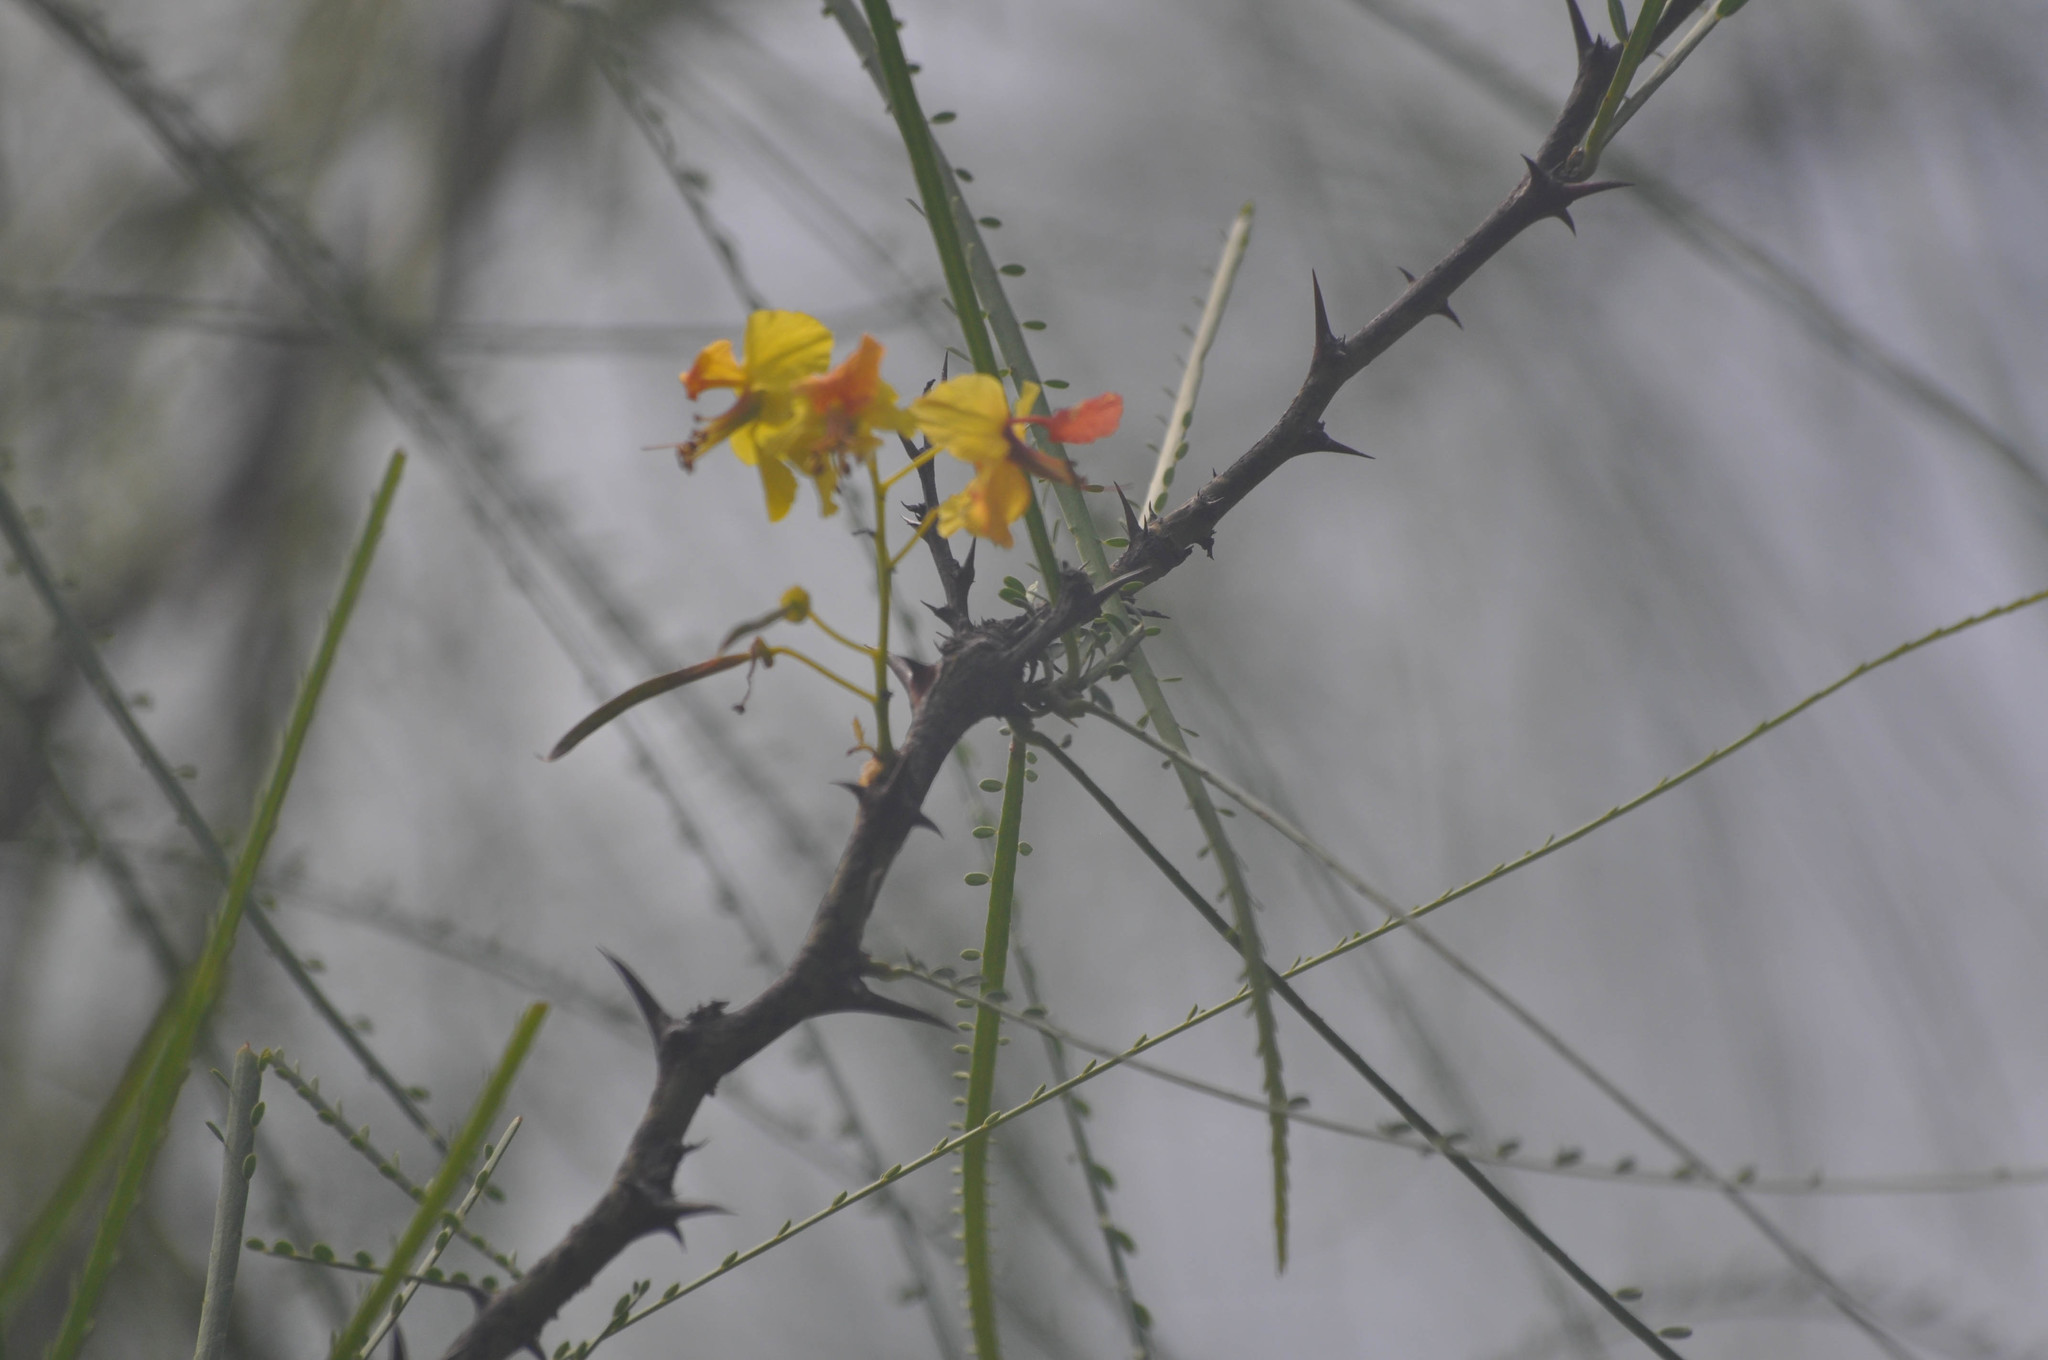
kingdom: Plantae
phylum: Tracheophyta
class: Magnoliopsida
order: Fabales
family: Fabaceae
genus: Parkinsonia
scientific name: Parkinsonia aculeata
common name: Jerusalem thorn
